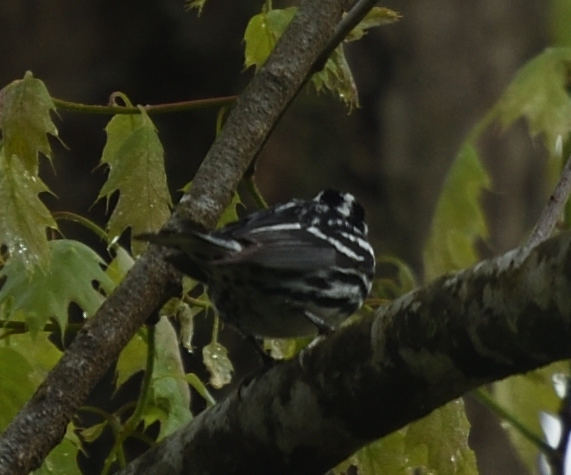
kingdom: Animalia
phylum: Chordata
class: Aves
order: Passeriformes
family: Parulidae
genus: Mniotilta
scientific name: Mniotilta varia
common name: Black-and-white warbler
